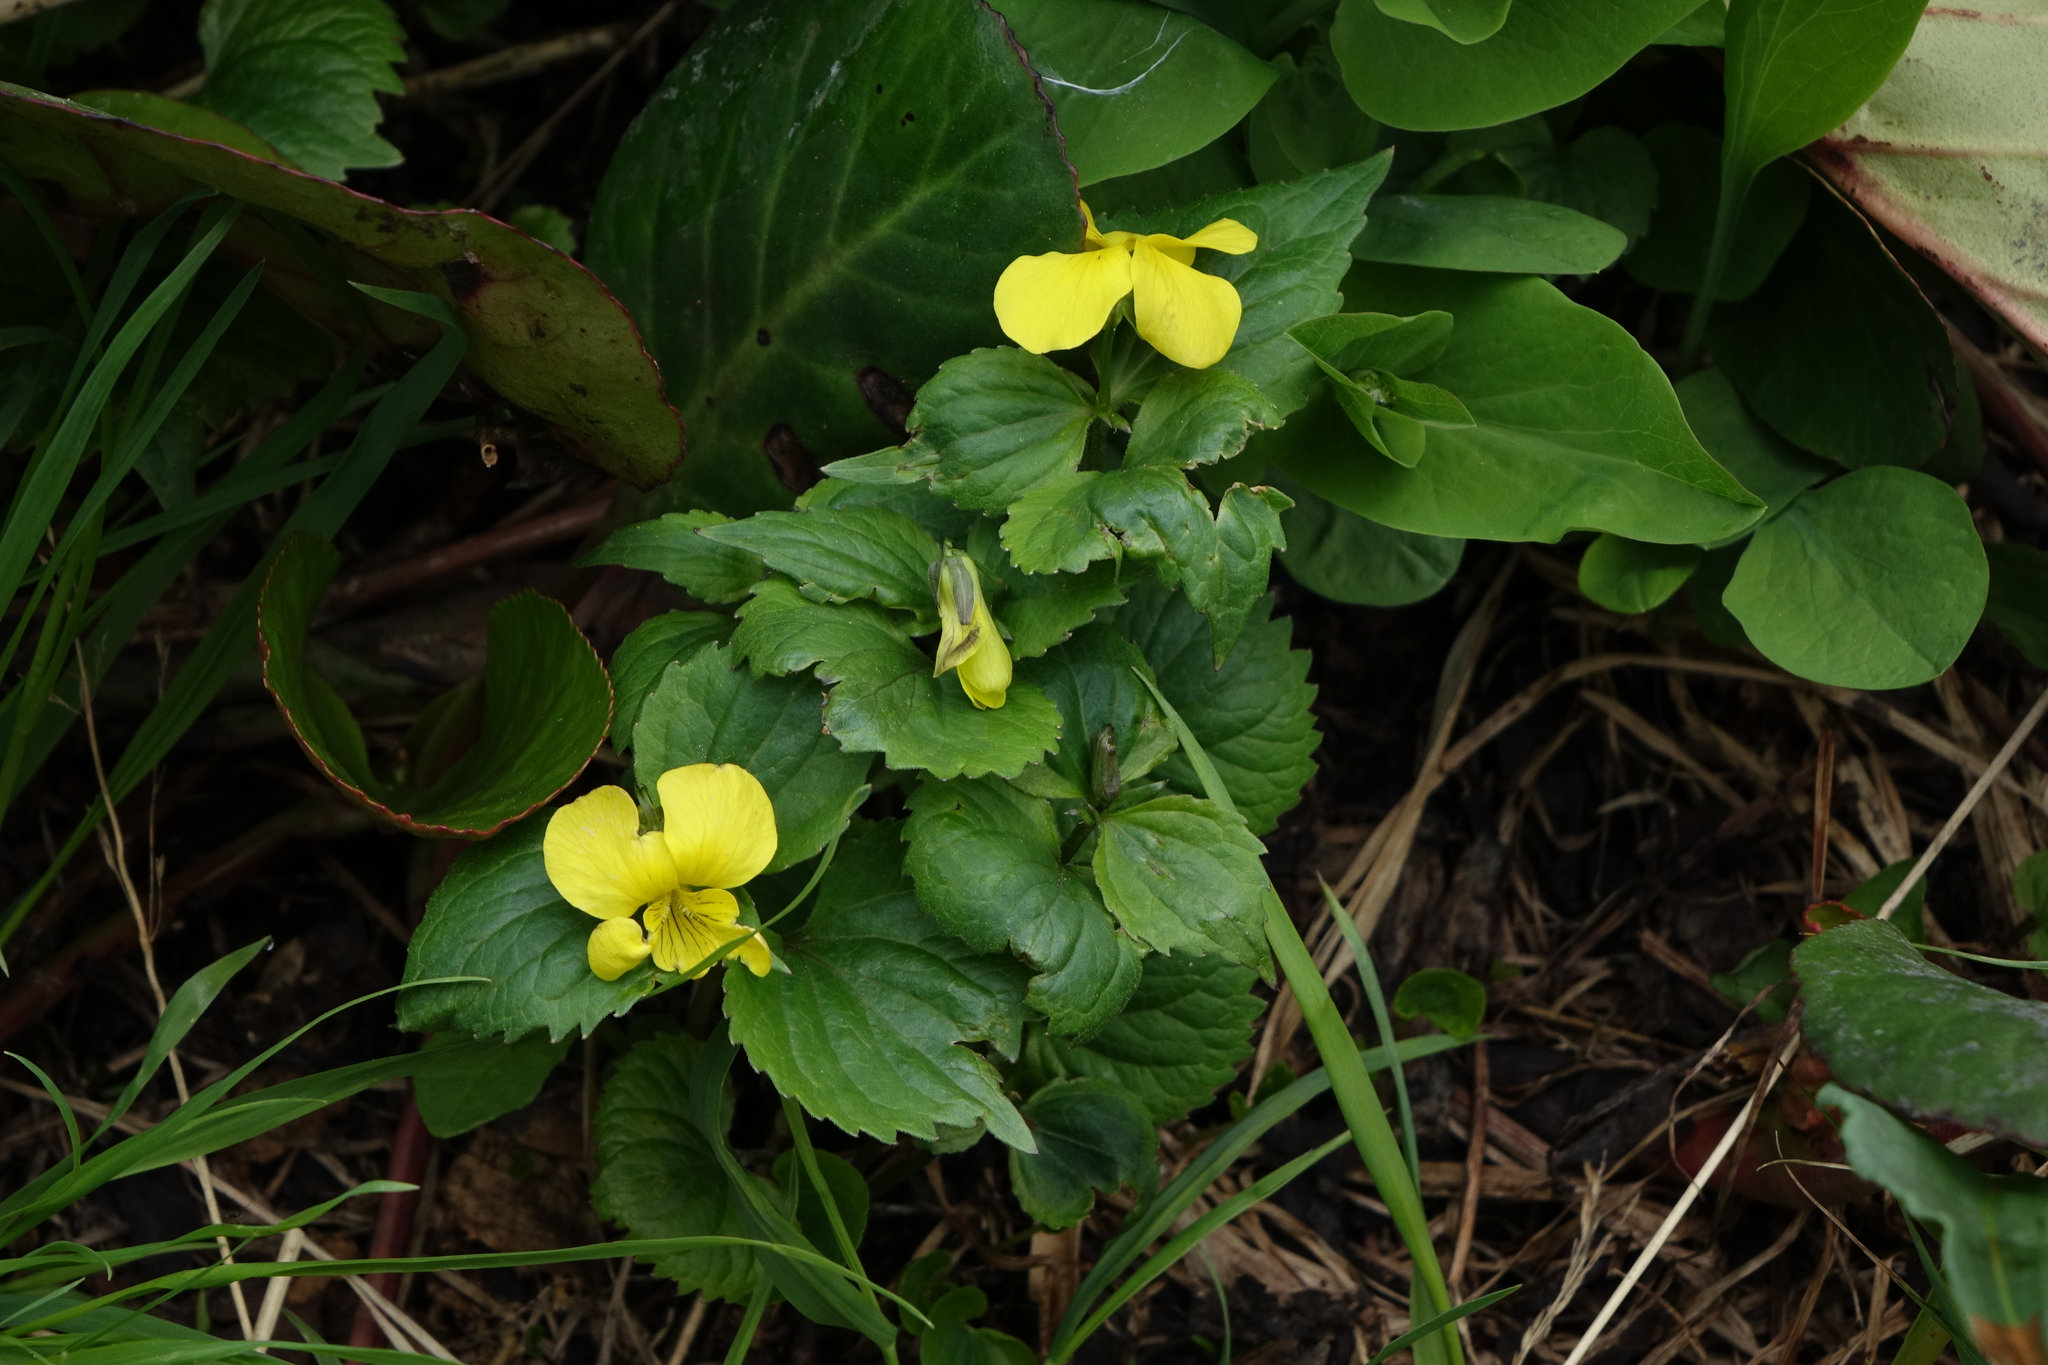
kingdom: Plantae
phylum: Tracheophyta
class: Magnoliopsida
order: Malpighiales
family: Violaceae
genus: Viola
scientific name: Viola uniflora
